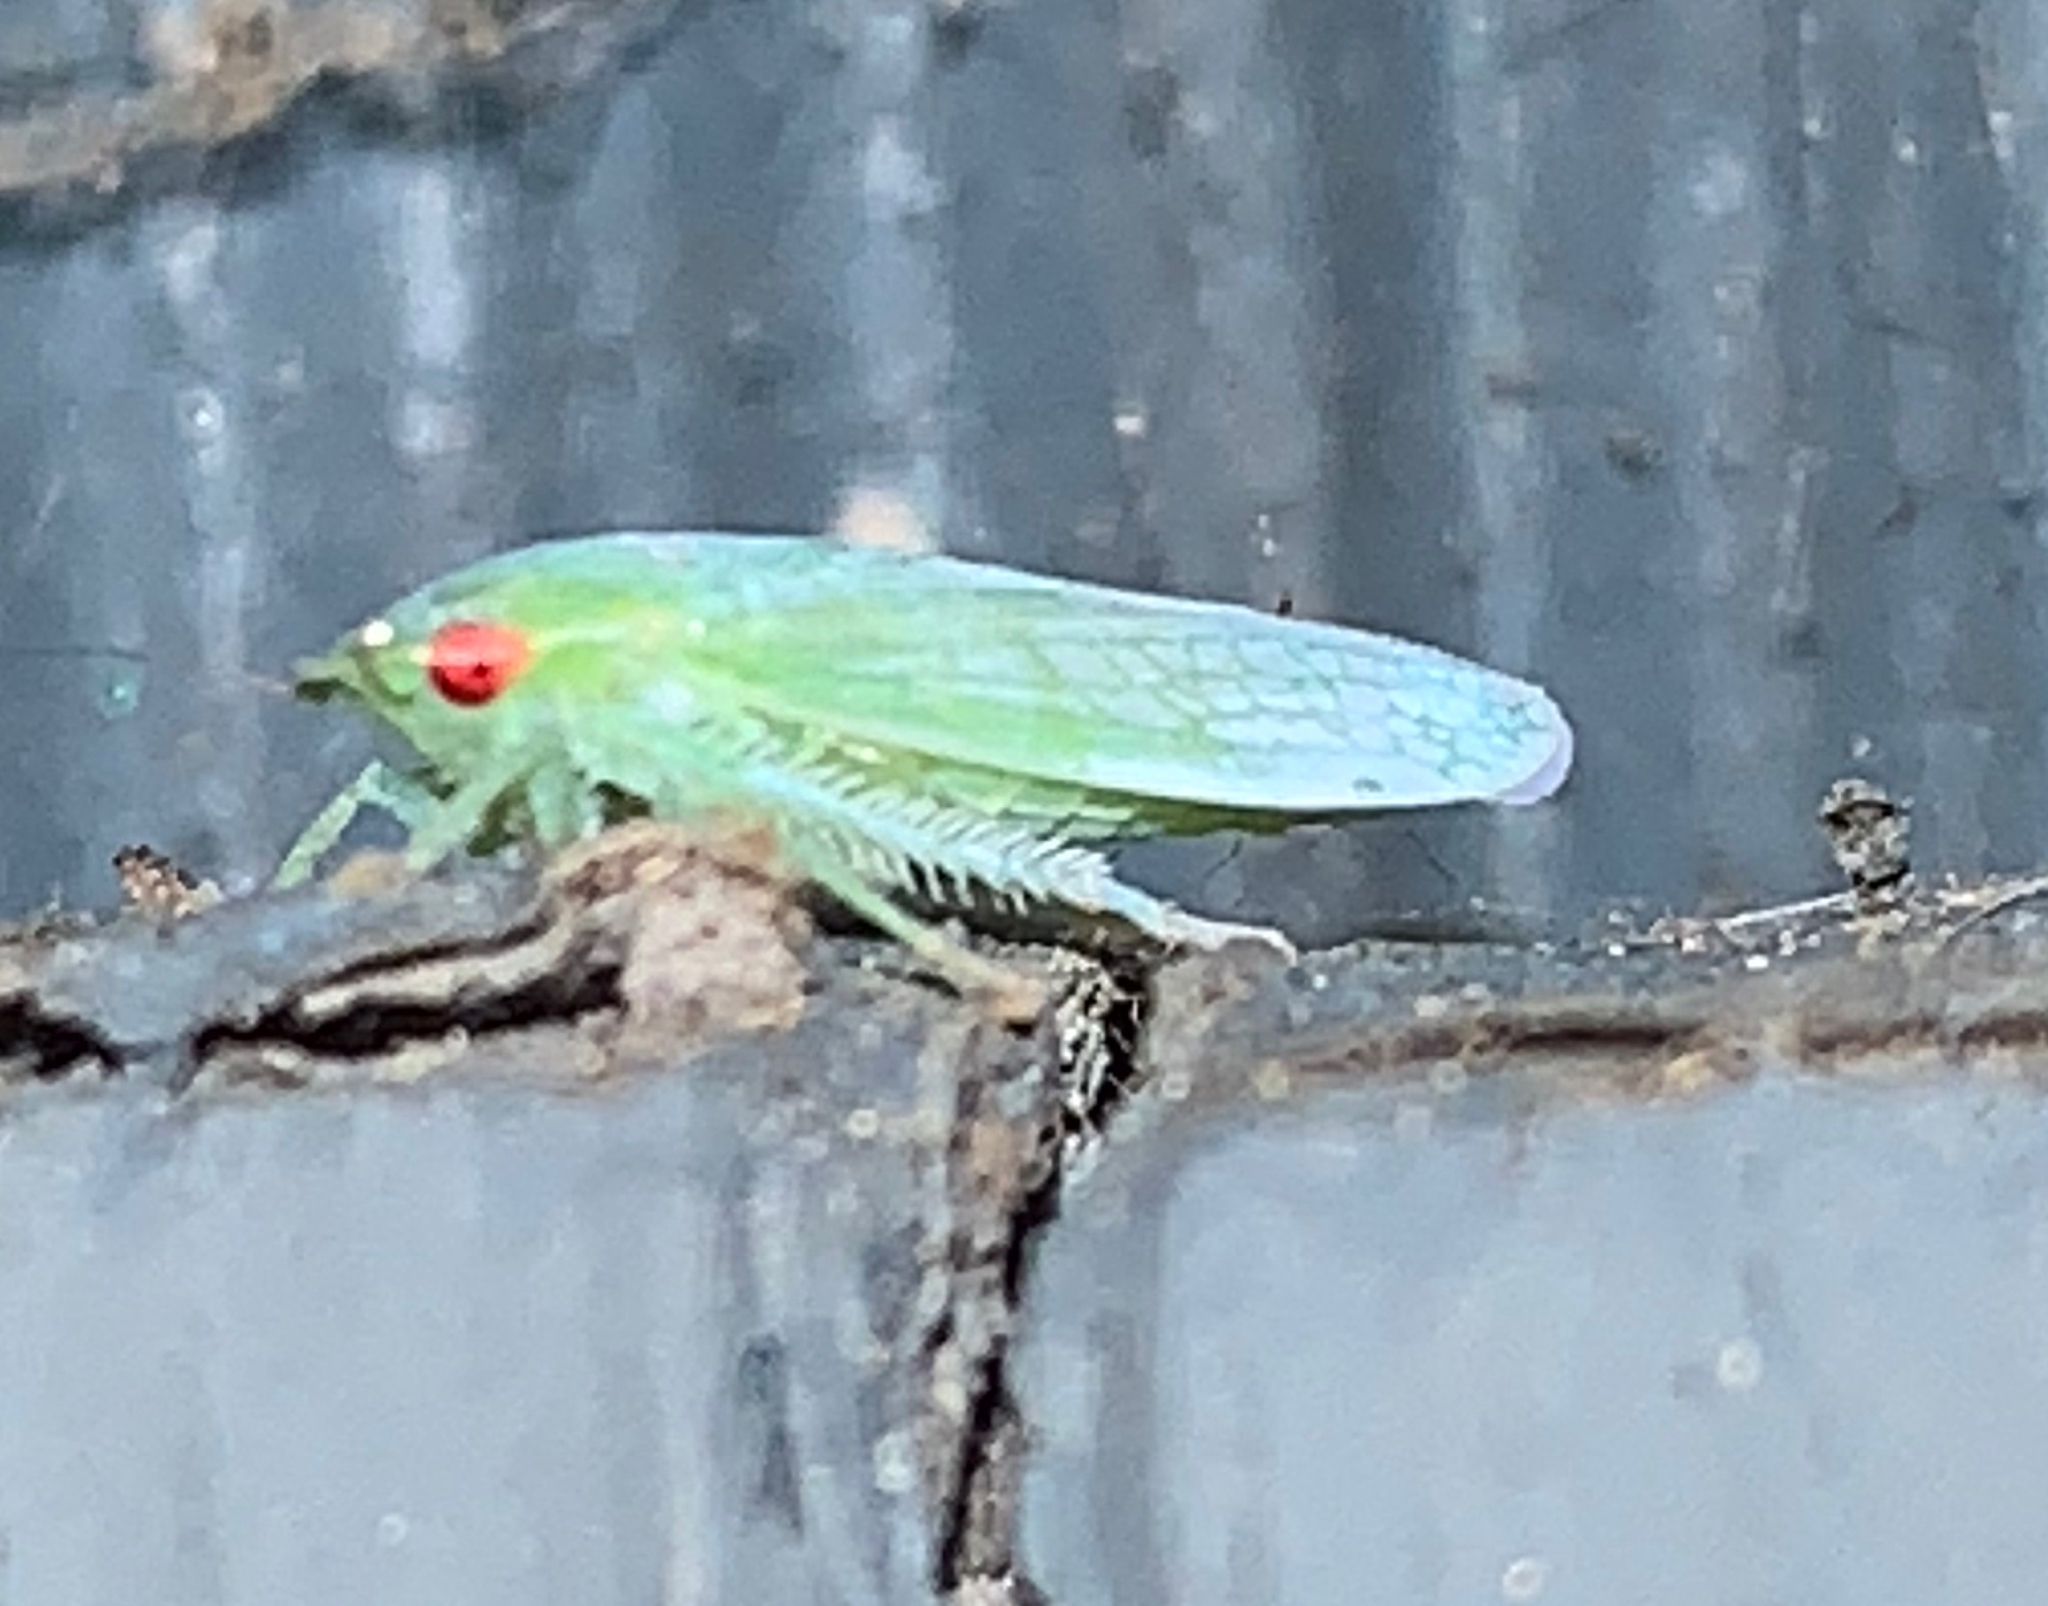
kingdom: Animalia
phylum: Arthropoda
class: Insecta
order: Hemiptera
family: Cicadellidae
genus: Gyponana
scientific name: Gyponana
